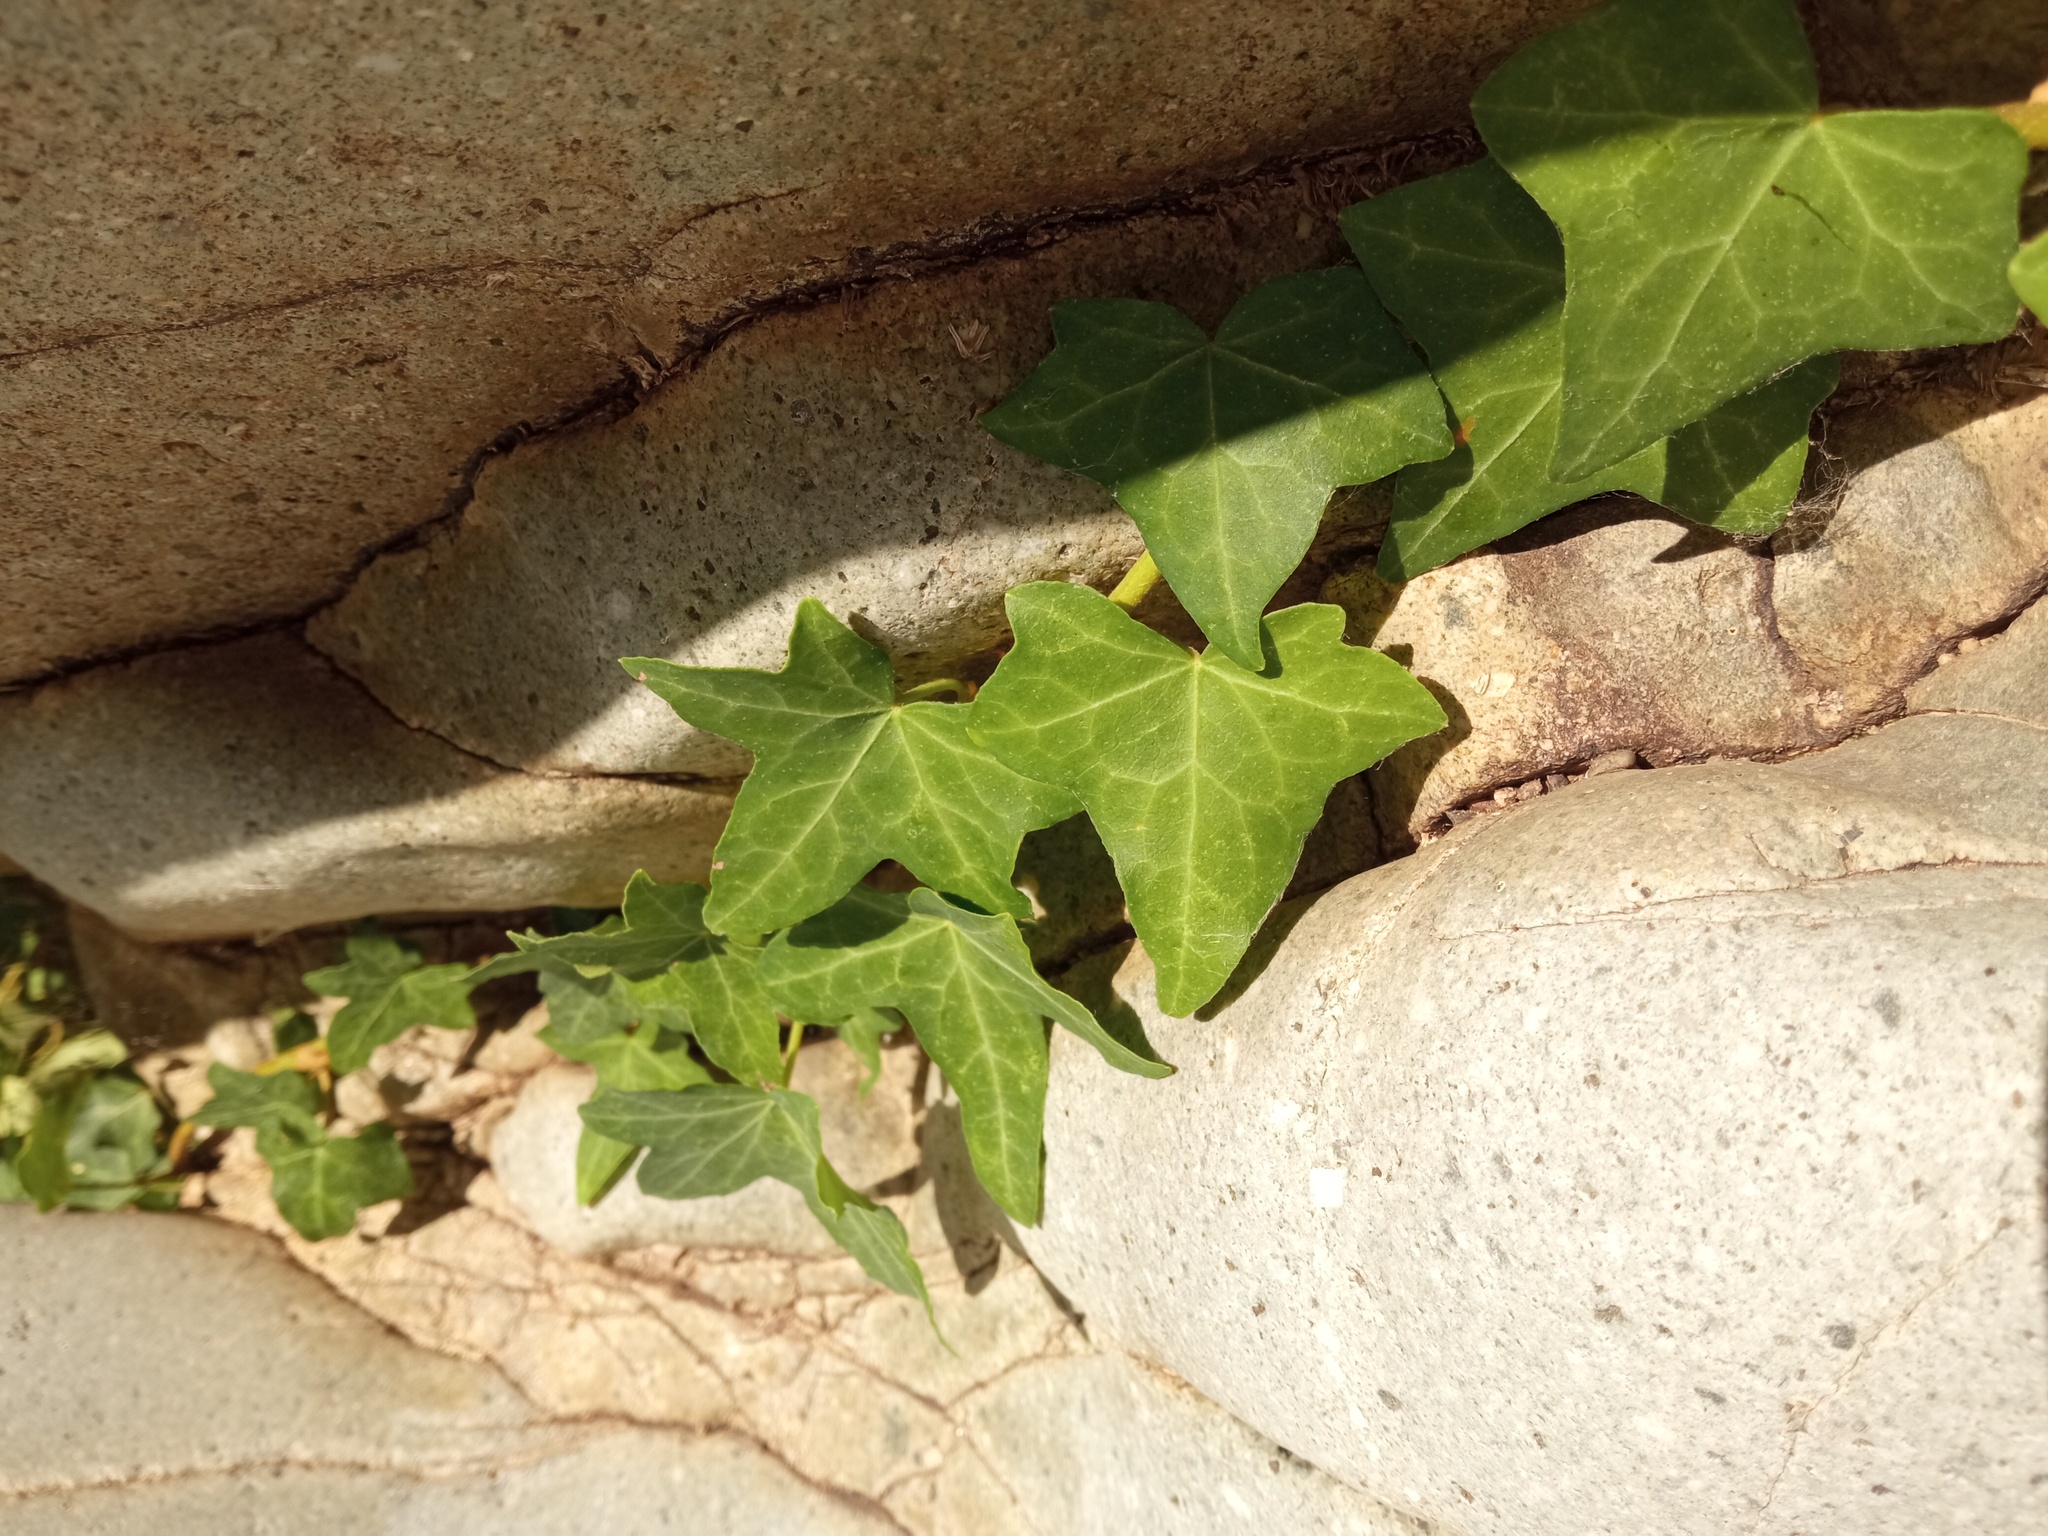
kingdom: Plantae
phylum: Tracheophyta
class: Magnoliopsida
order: Apiales
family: Araliaceae
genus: Hedera
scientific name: Hedera helix
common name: Ivy
